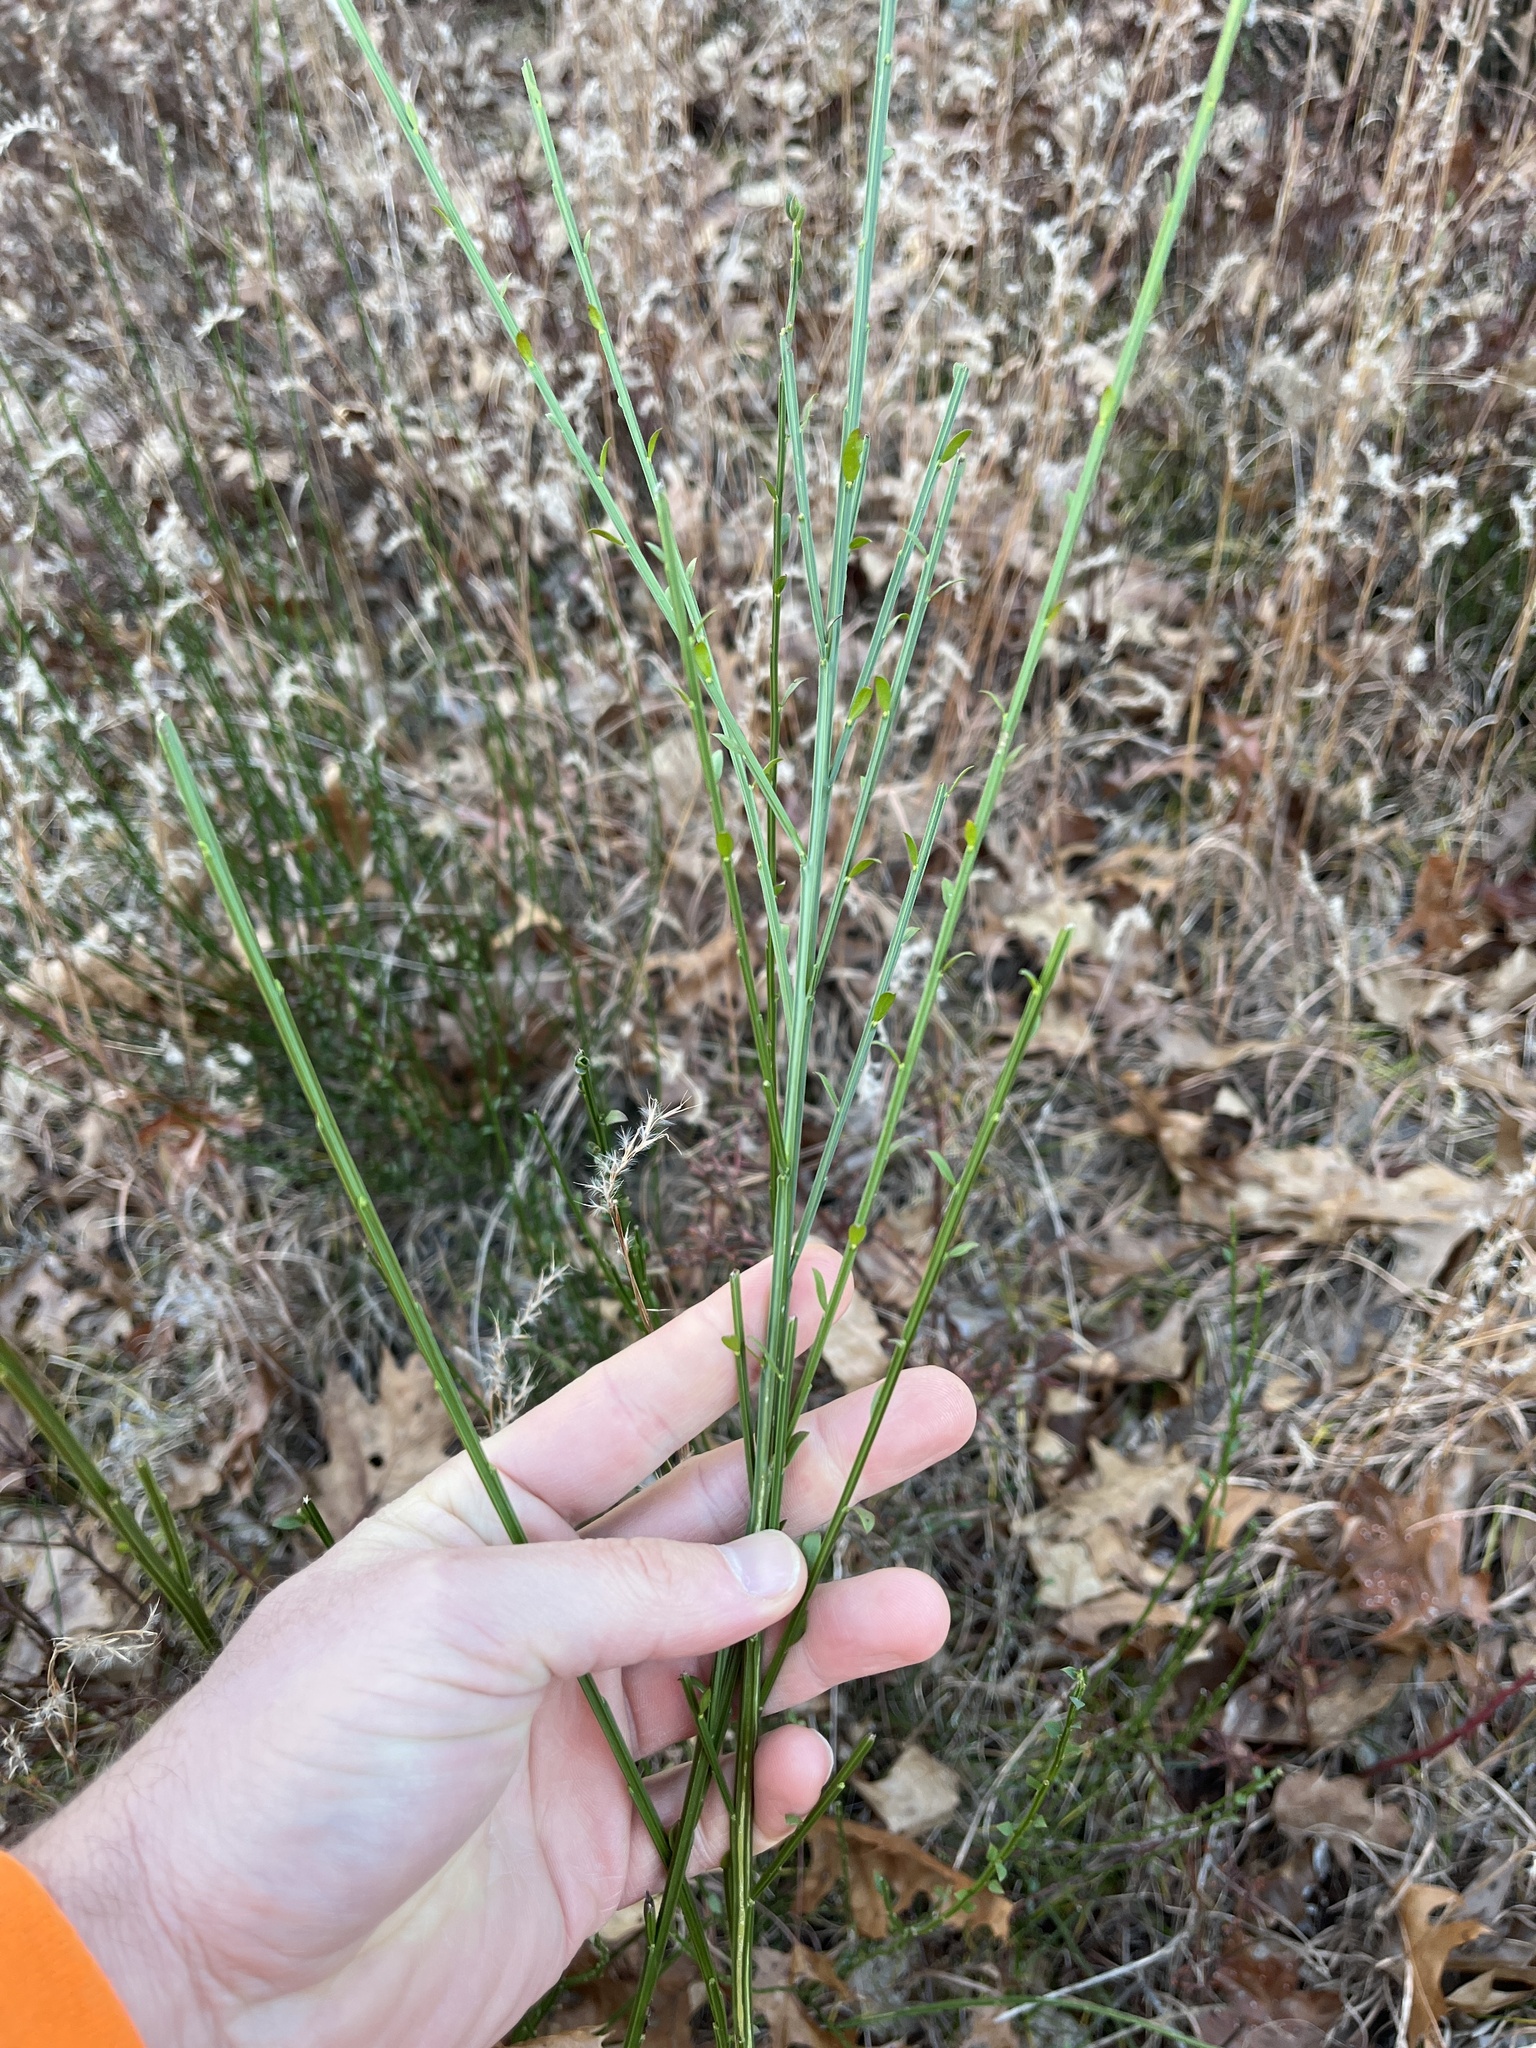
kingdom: Plantae
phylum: Tracheophyta
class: Magnoliopsida
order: Fabales
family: Fabaceae
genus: Cytisus
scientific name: Cytisus scoparius
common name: Scotch broom
